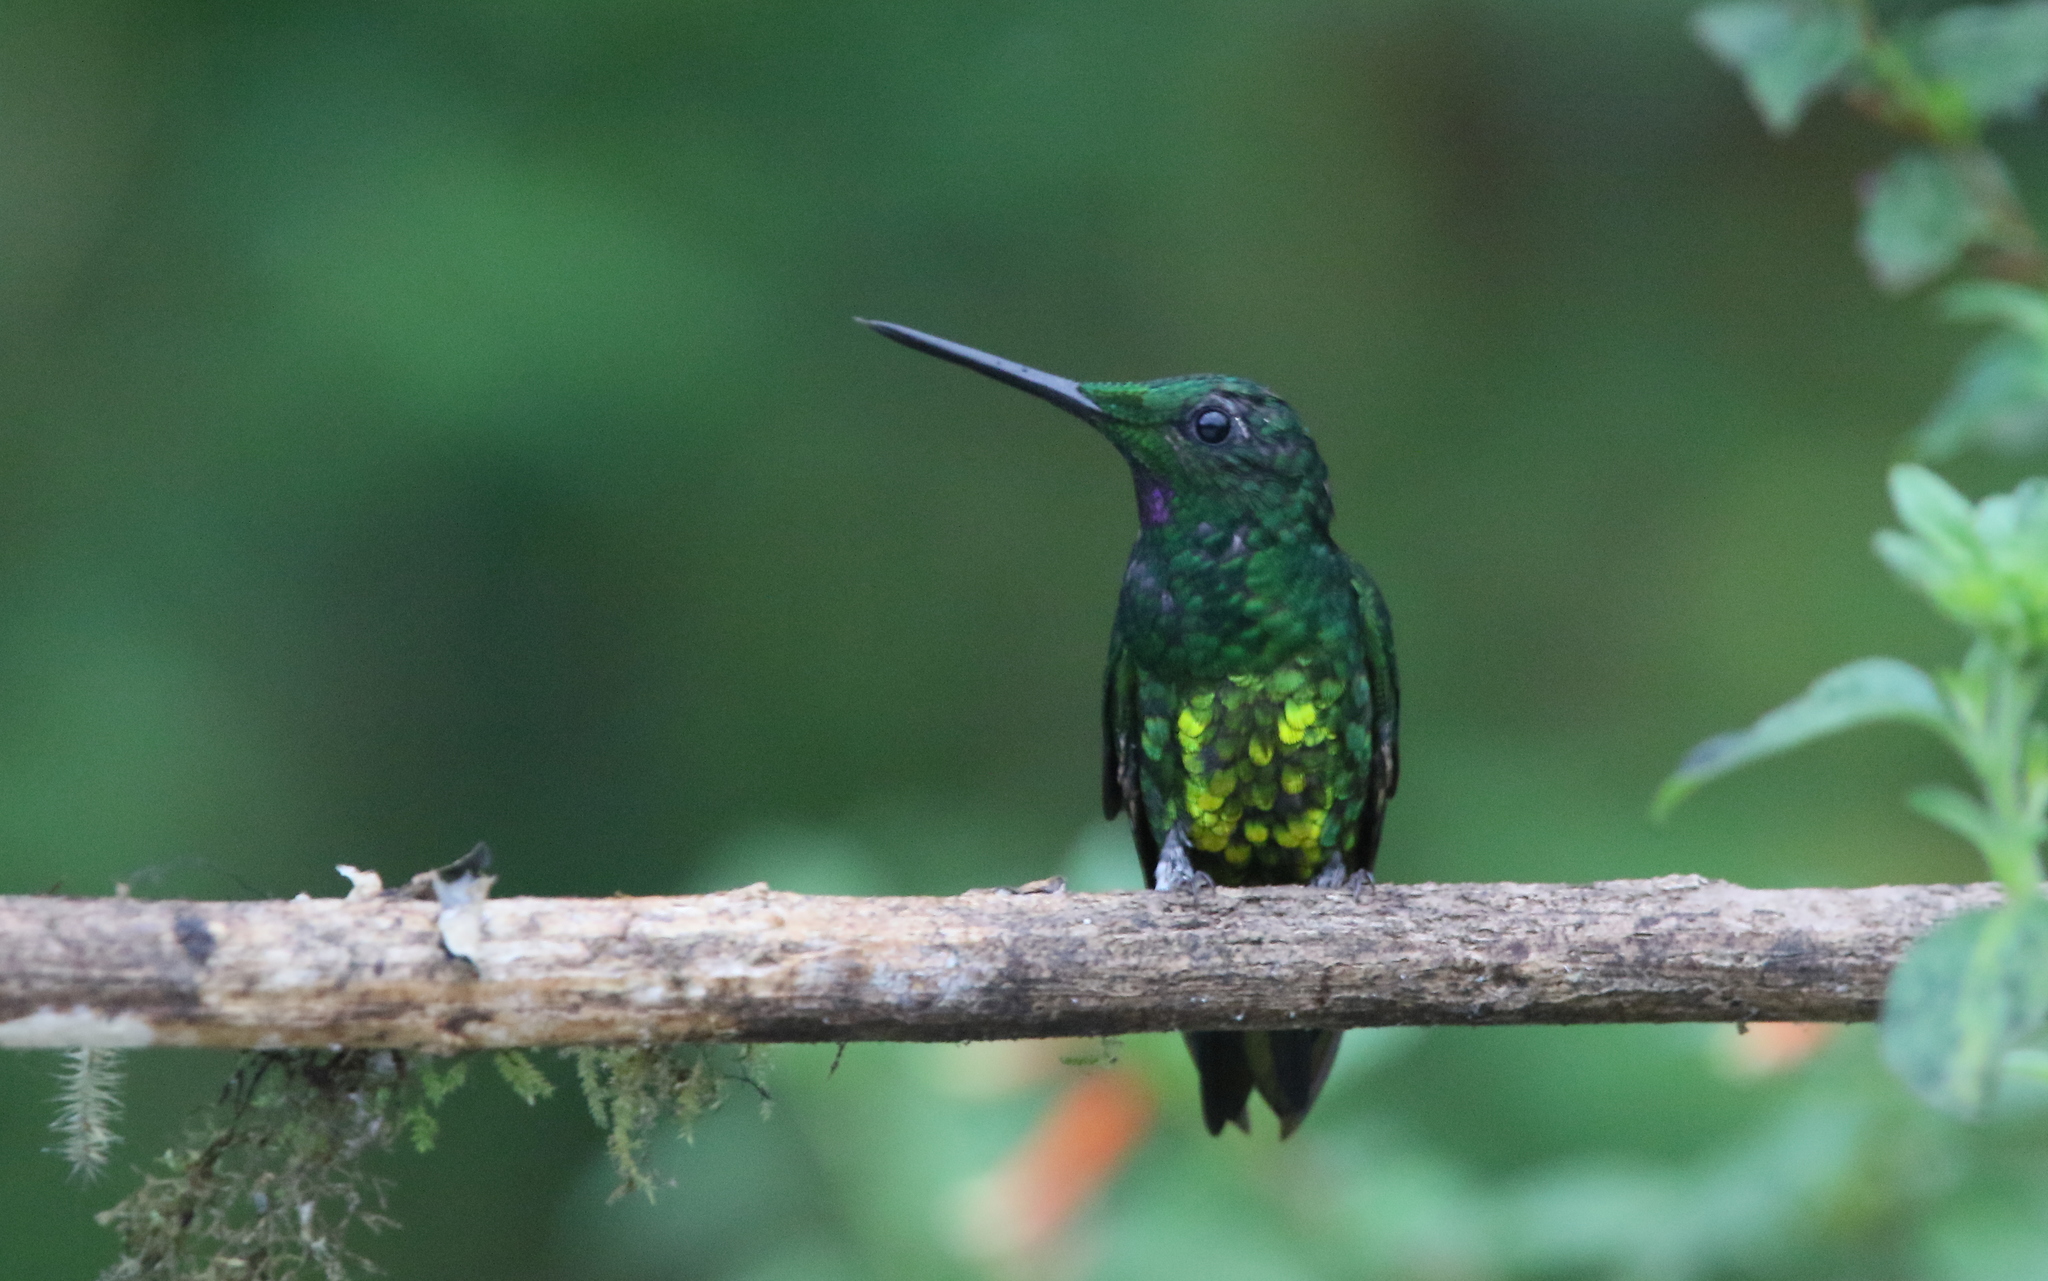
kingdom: Animalia
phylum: Chordata
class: Aves
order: Apodiformes
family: Trochilidae
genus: Heliodoxa
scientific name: Heliodoxa imperatrix
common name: Empress brilliant
